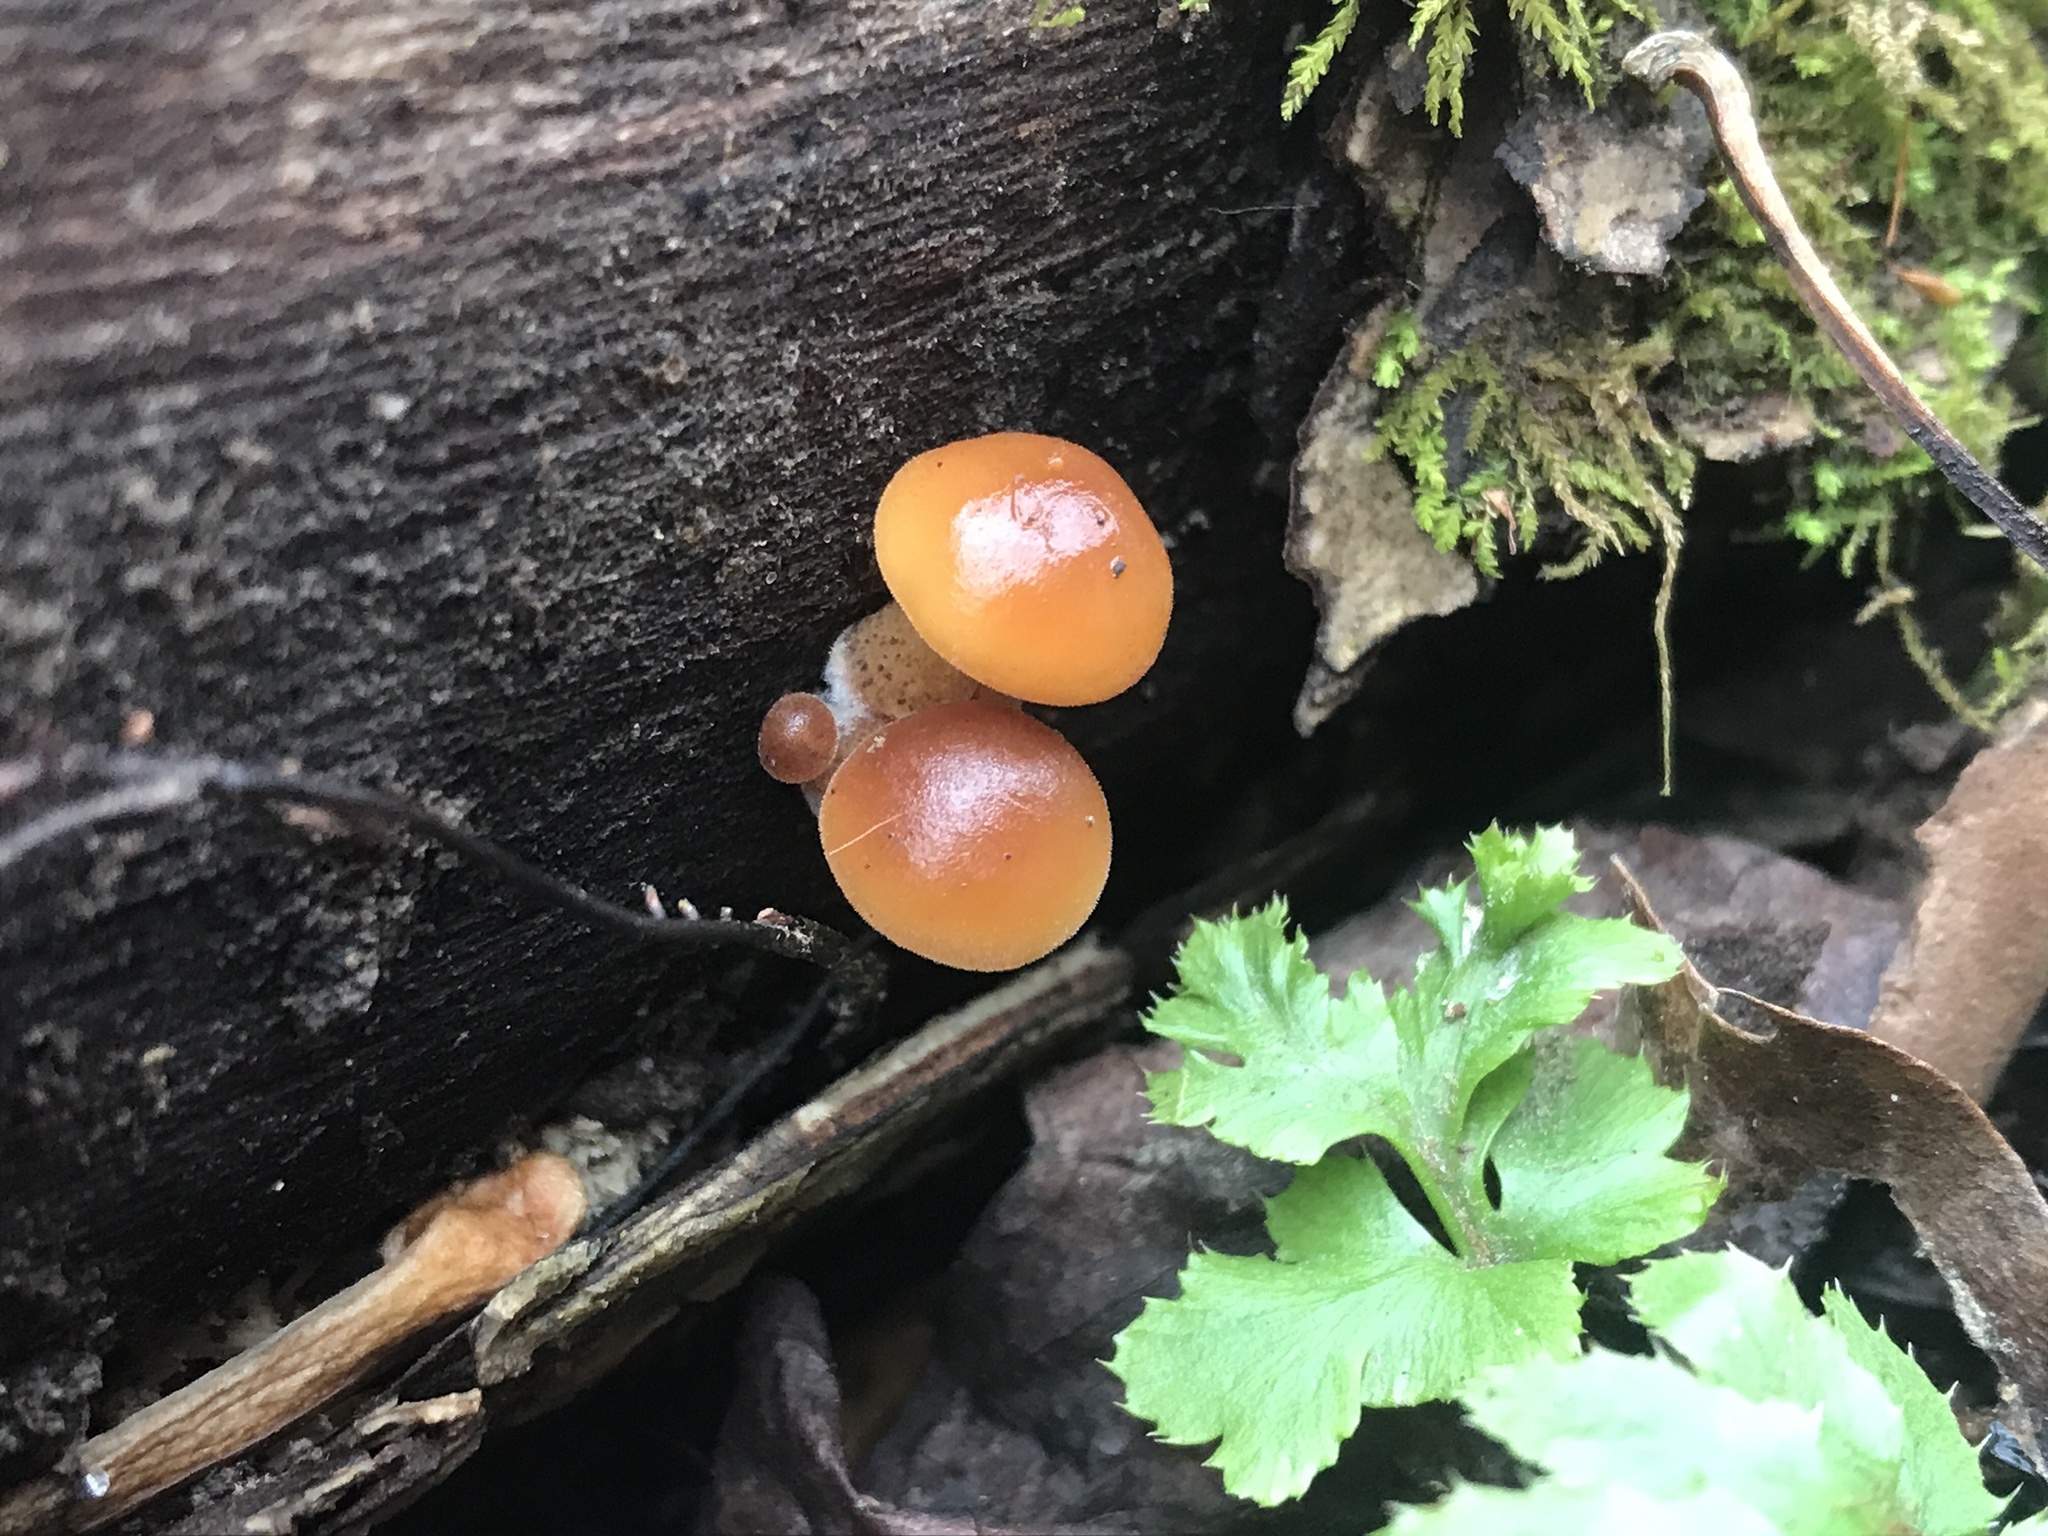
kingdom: Fungi
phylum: Basidiomycota
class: Agaricomycetes
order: Agaricales
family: Physalacriaceae
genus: Flammulina
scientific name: Flammulina velutipes
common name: Velvet shank
